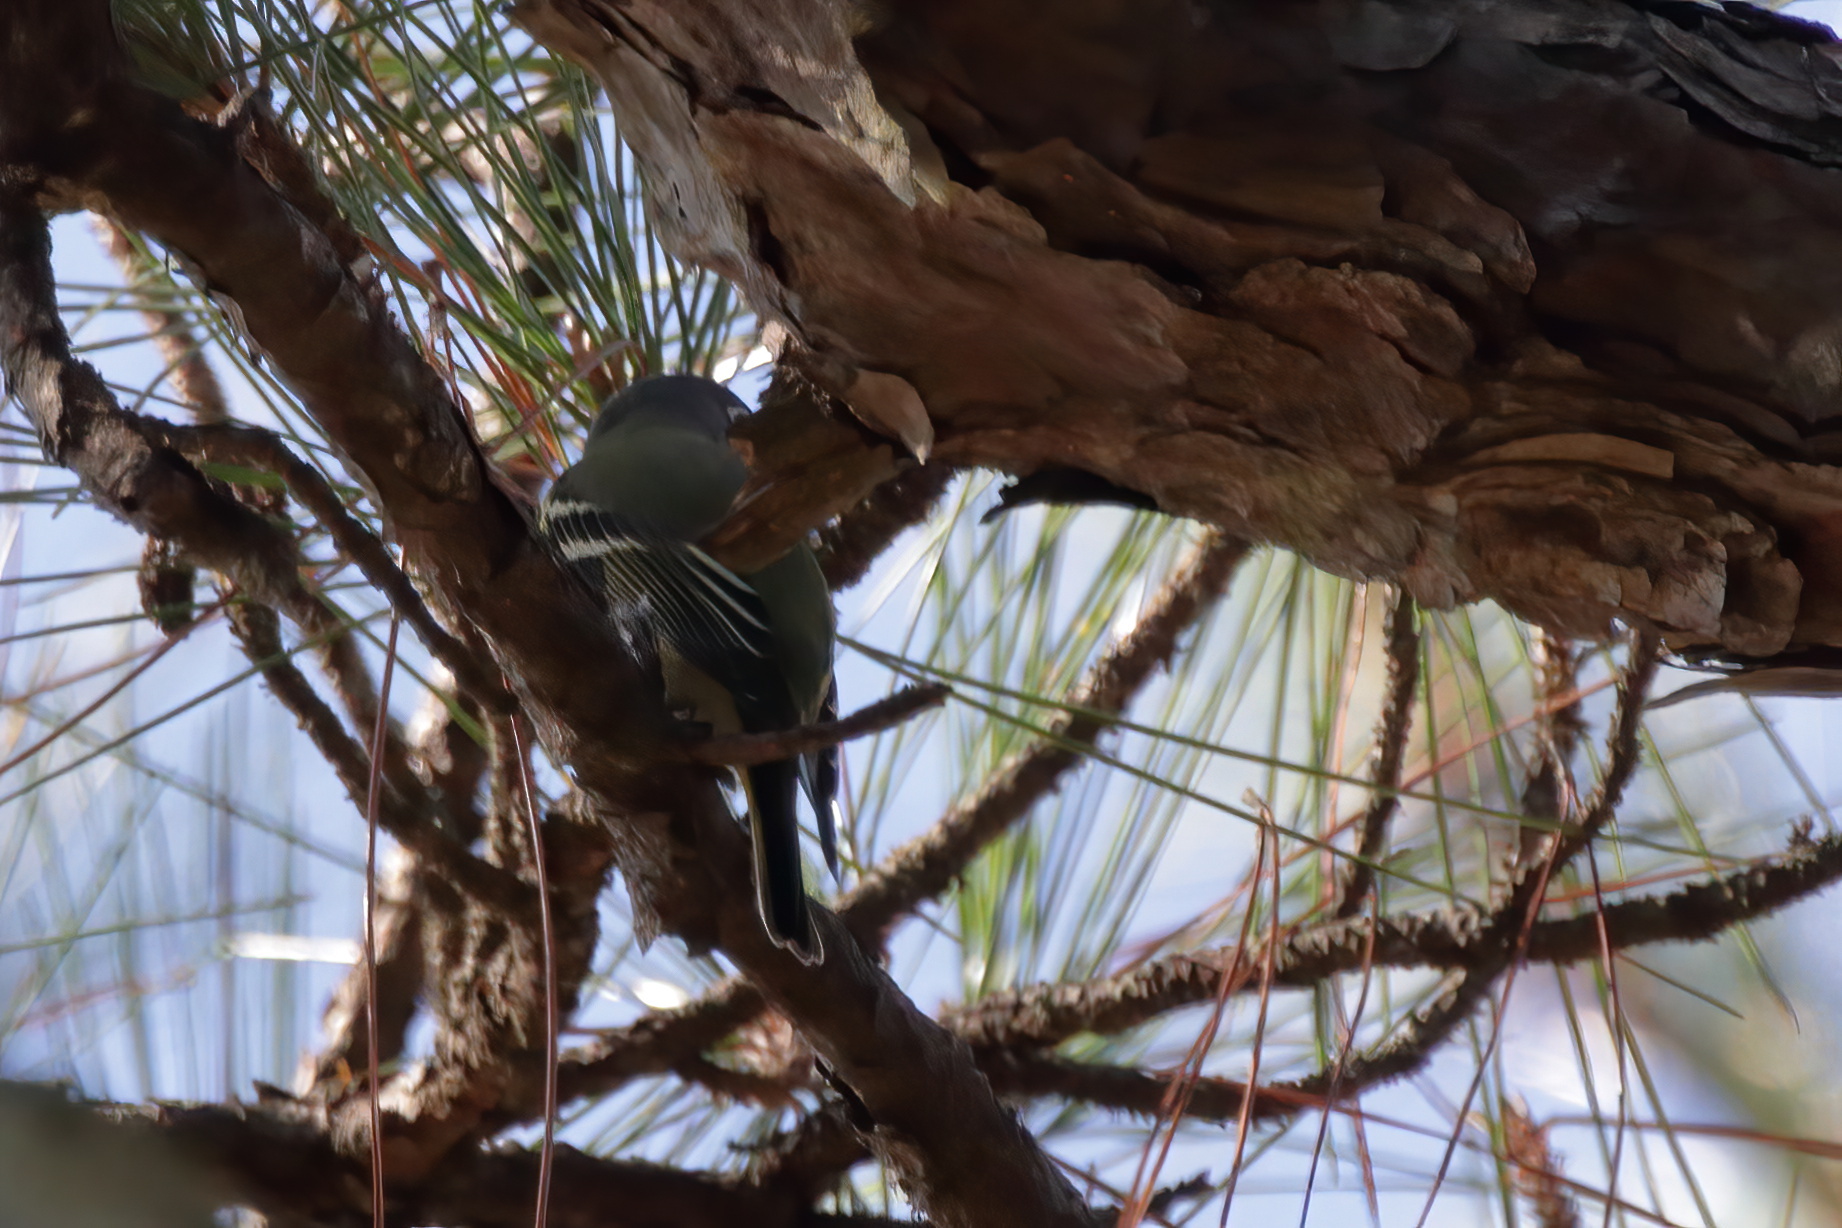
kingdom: Animalia
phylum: Chordata
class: Aves
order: Passeriformes
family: Vireonidae
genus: Vireo
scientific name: Vireo solitarius
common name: Blue-headed vireo
